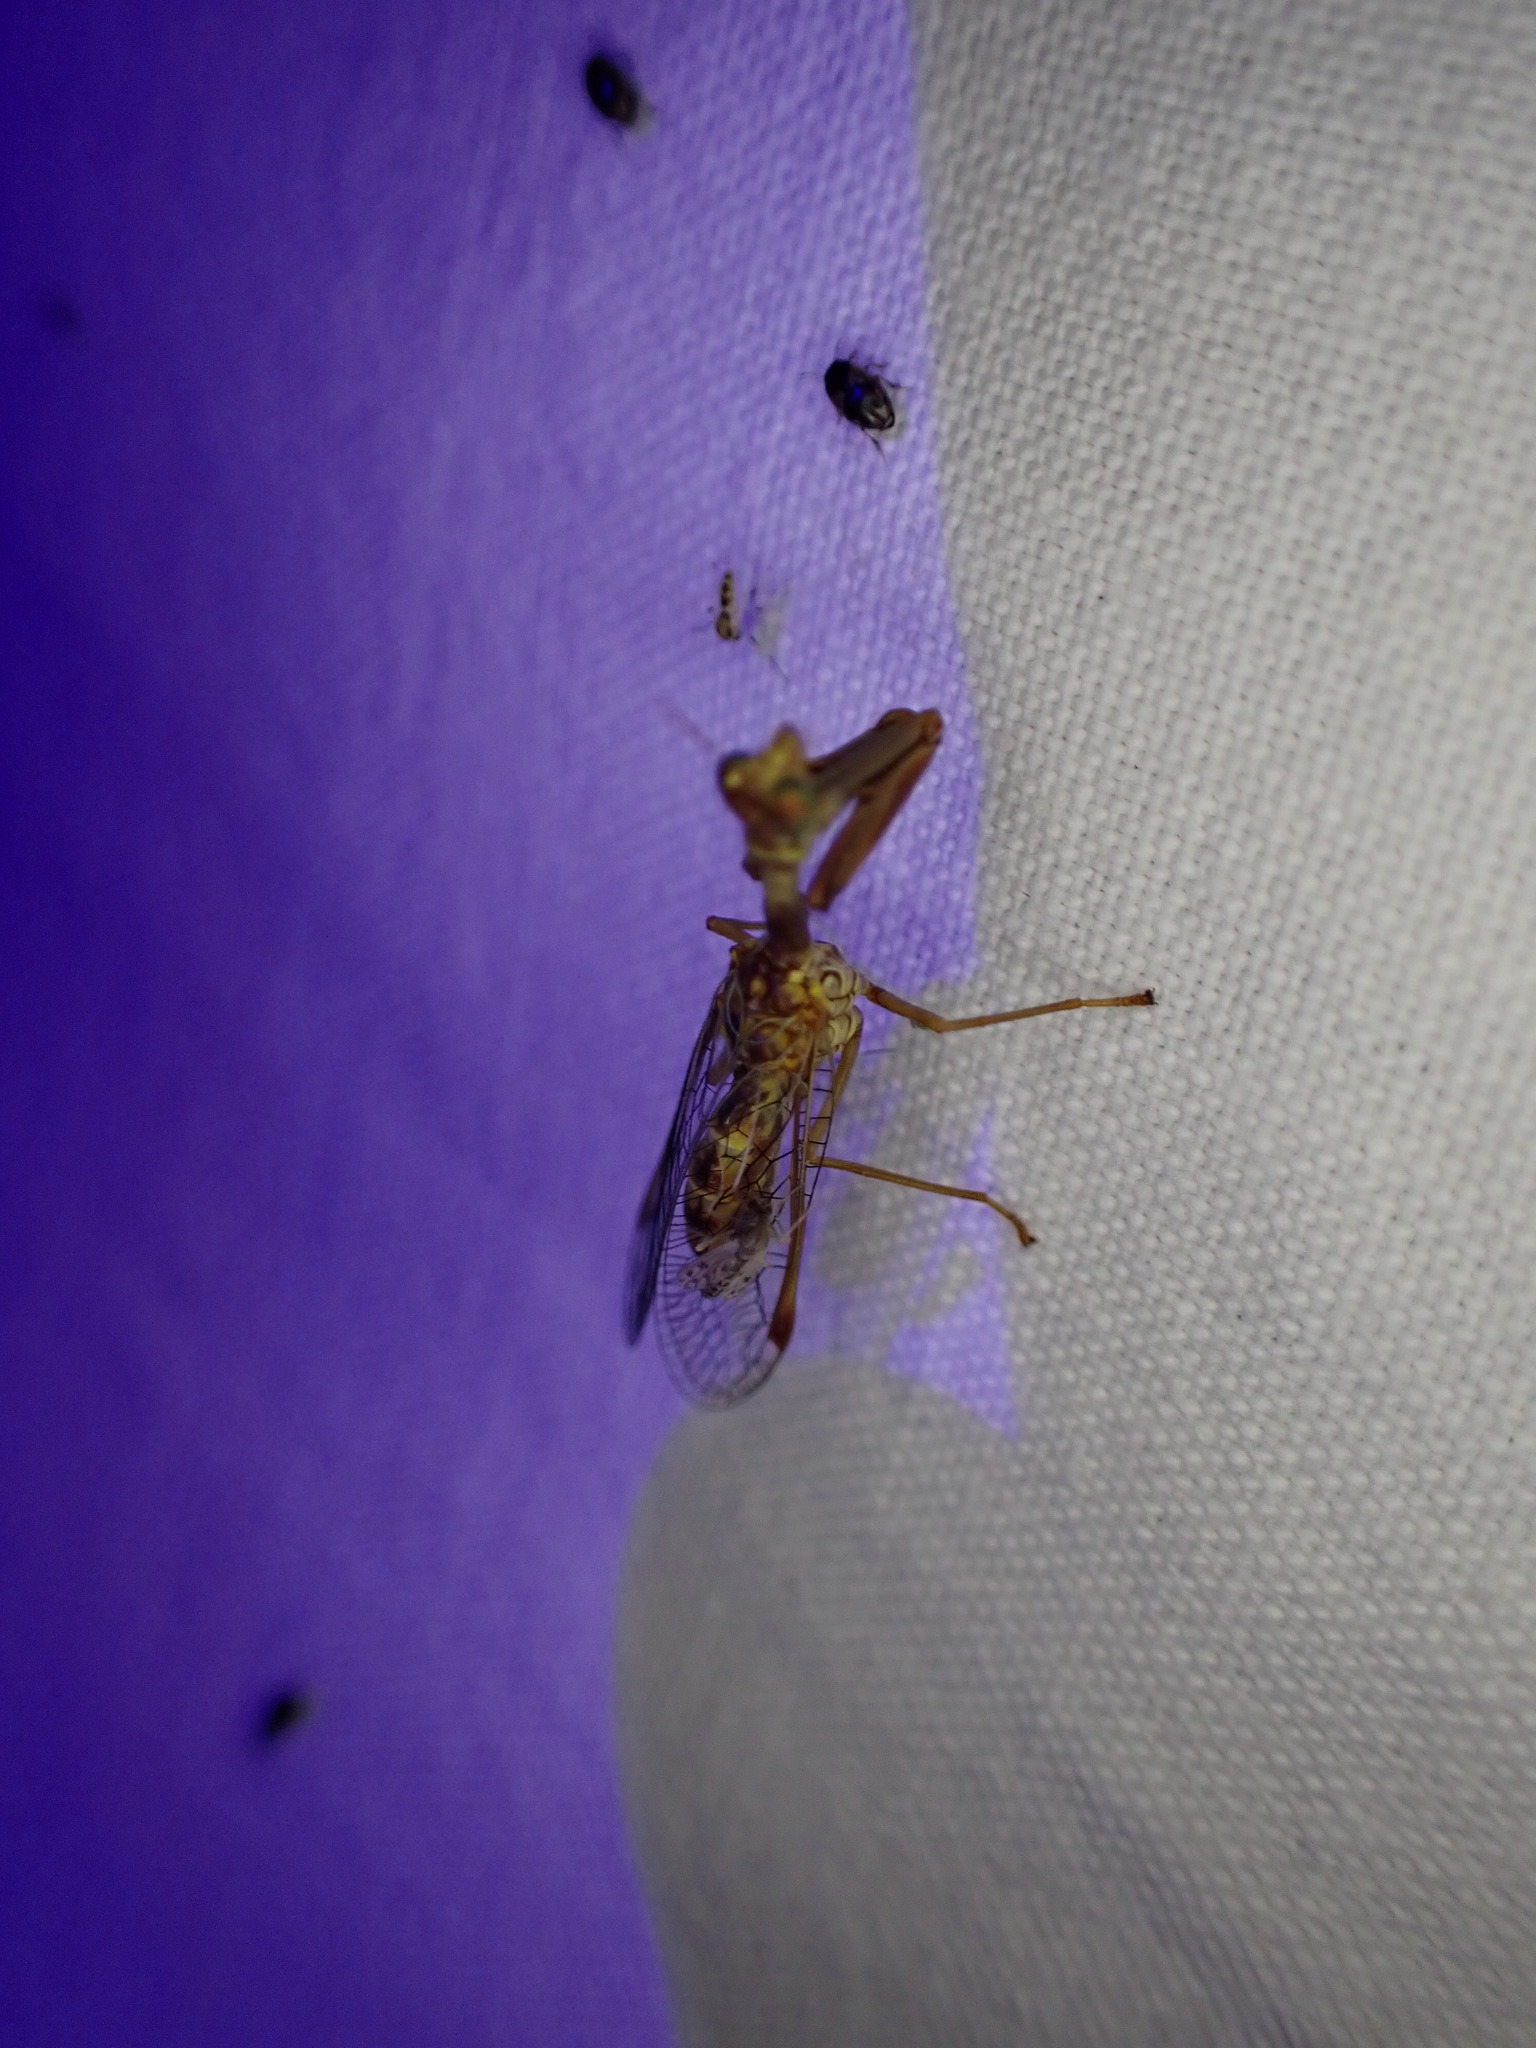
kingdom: Animalia
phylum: Arthropoda
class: Insecta
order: Neuroptera
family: Mantispidae
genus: Mantispa
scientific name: Mantispa styriaca
